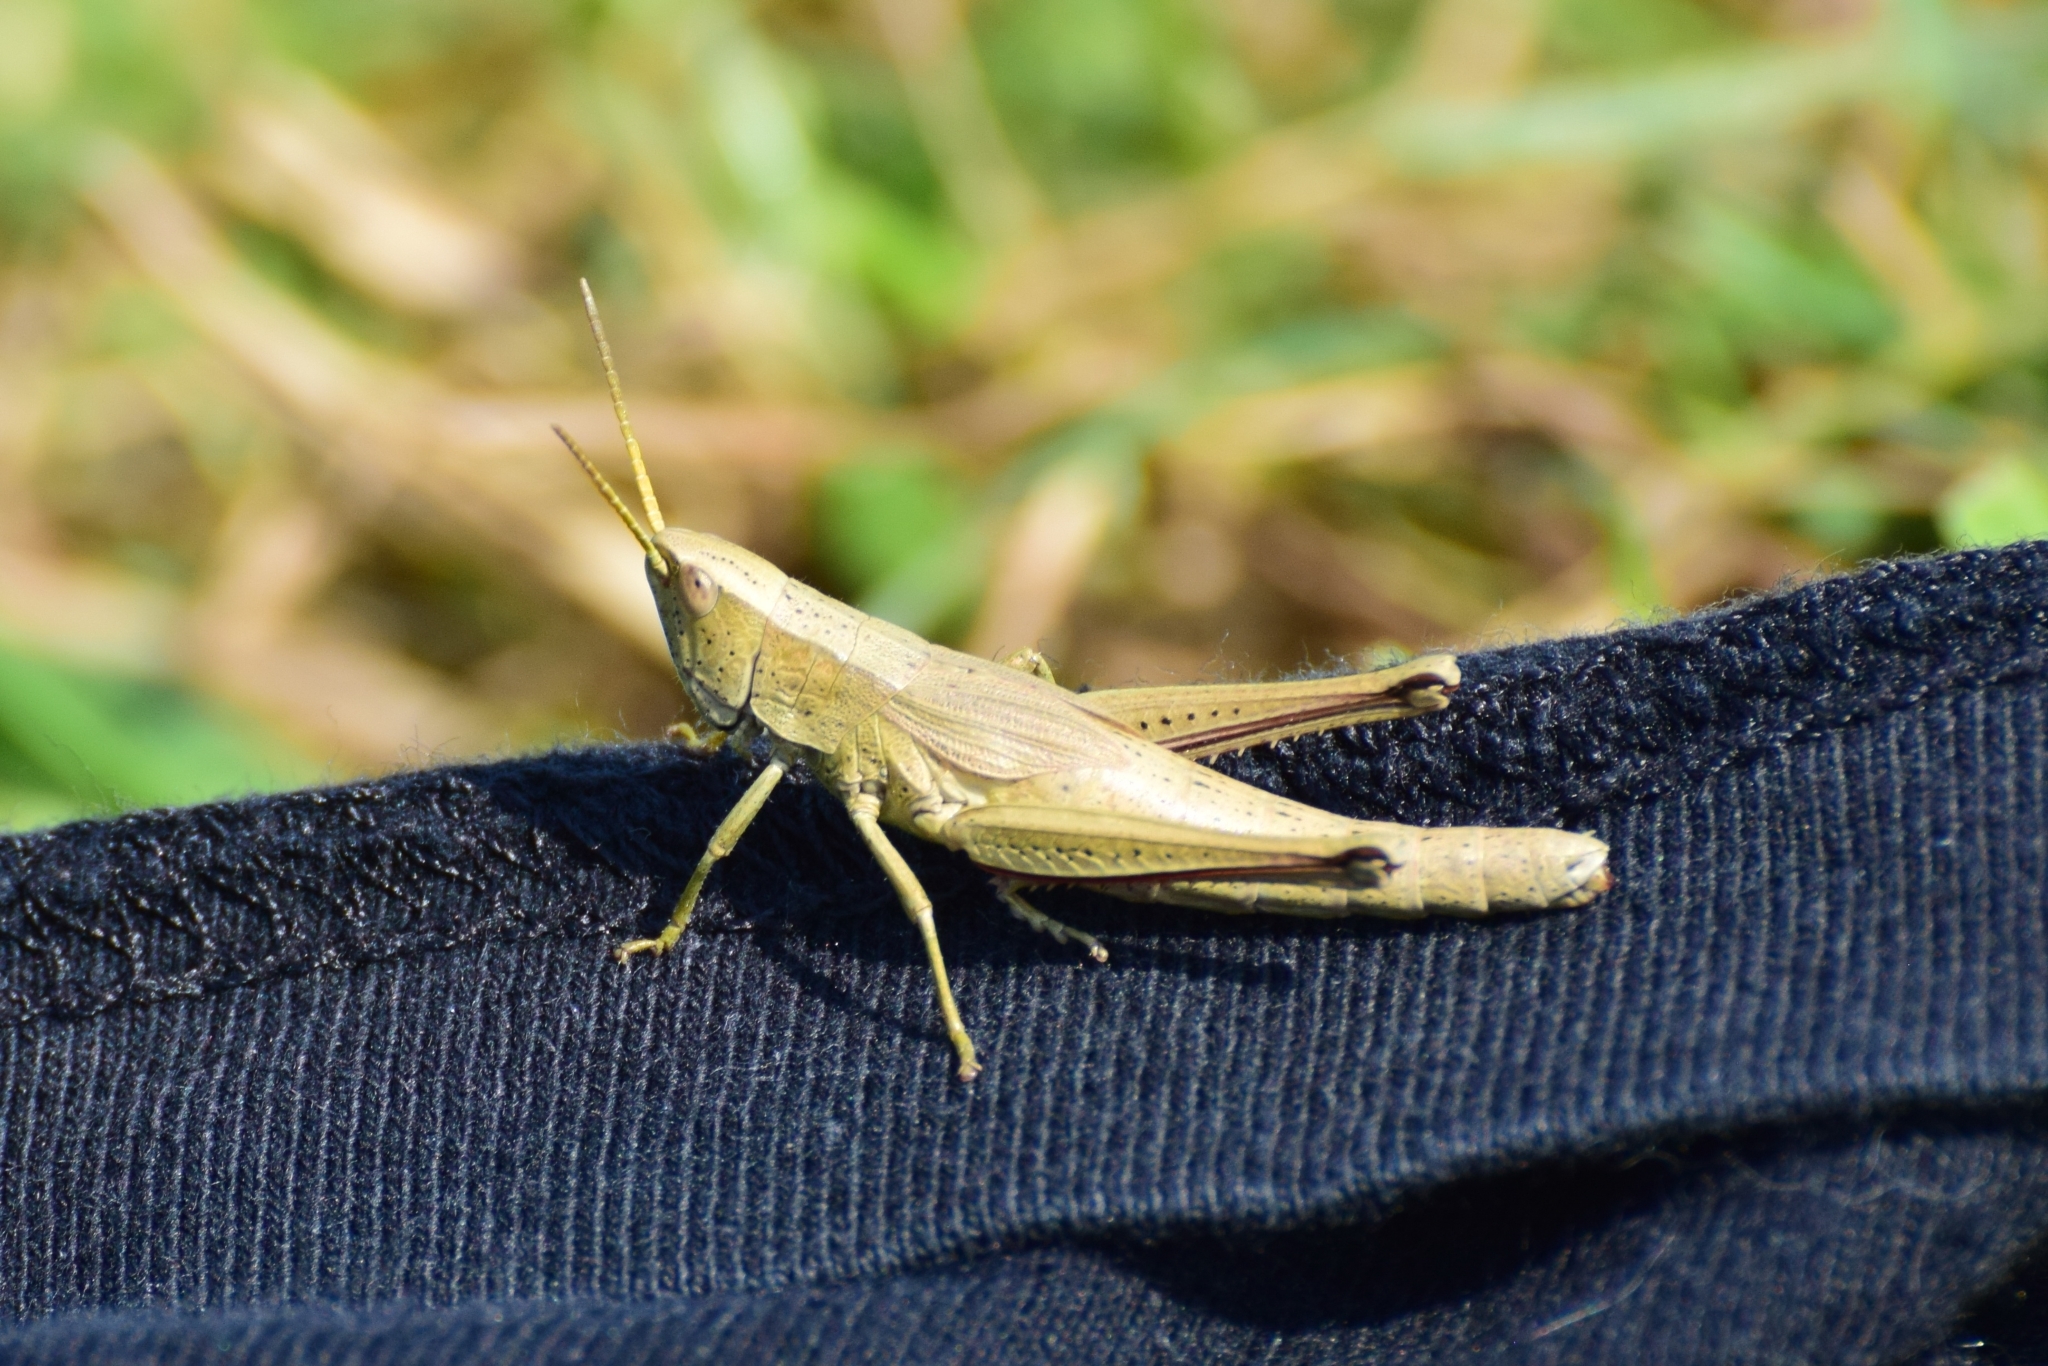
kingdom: Animalia
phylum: Arthropoda
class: Insecta
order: Orthoptera
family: Acrididae
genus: Chrysochraon
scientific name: Chrysochraon dispar
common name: Large gold grasshopper
